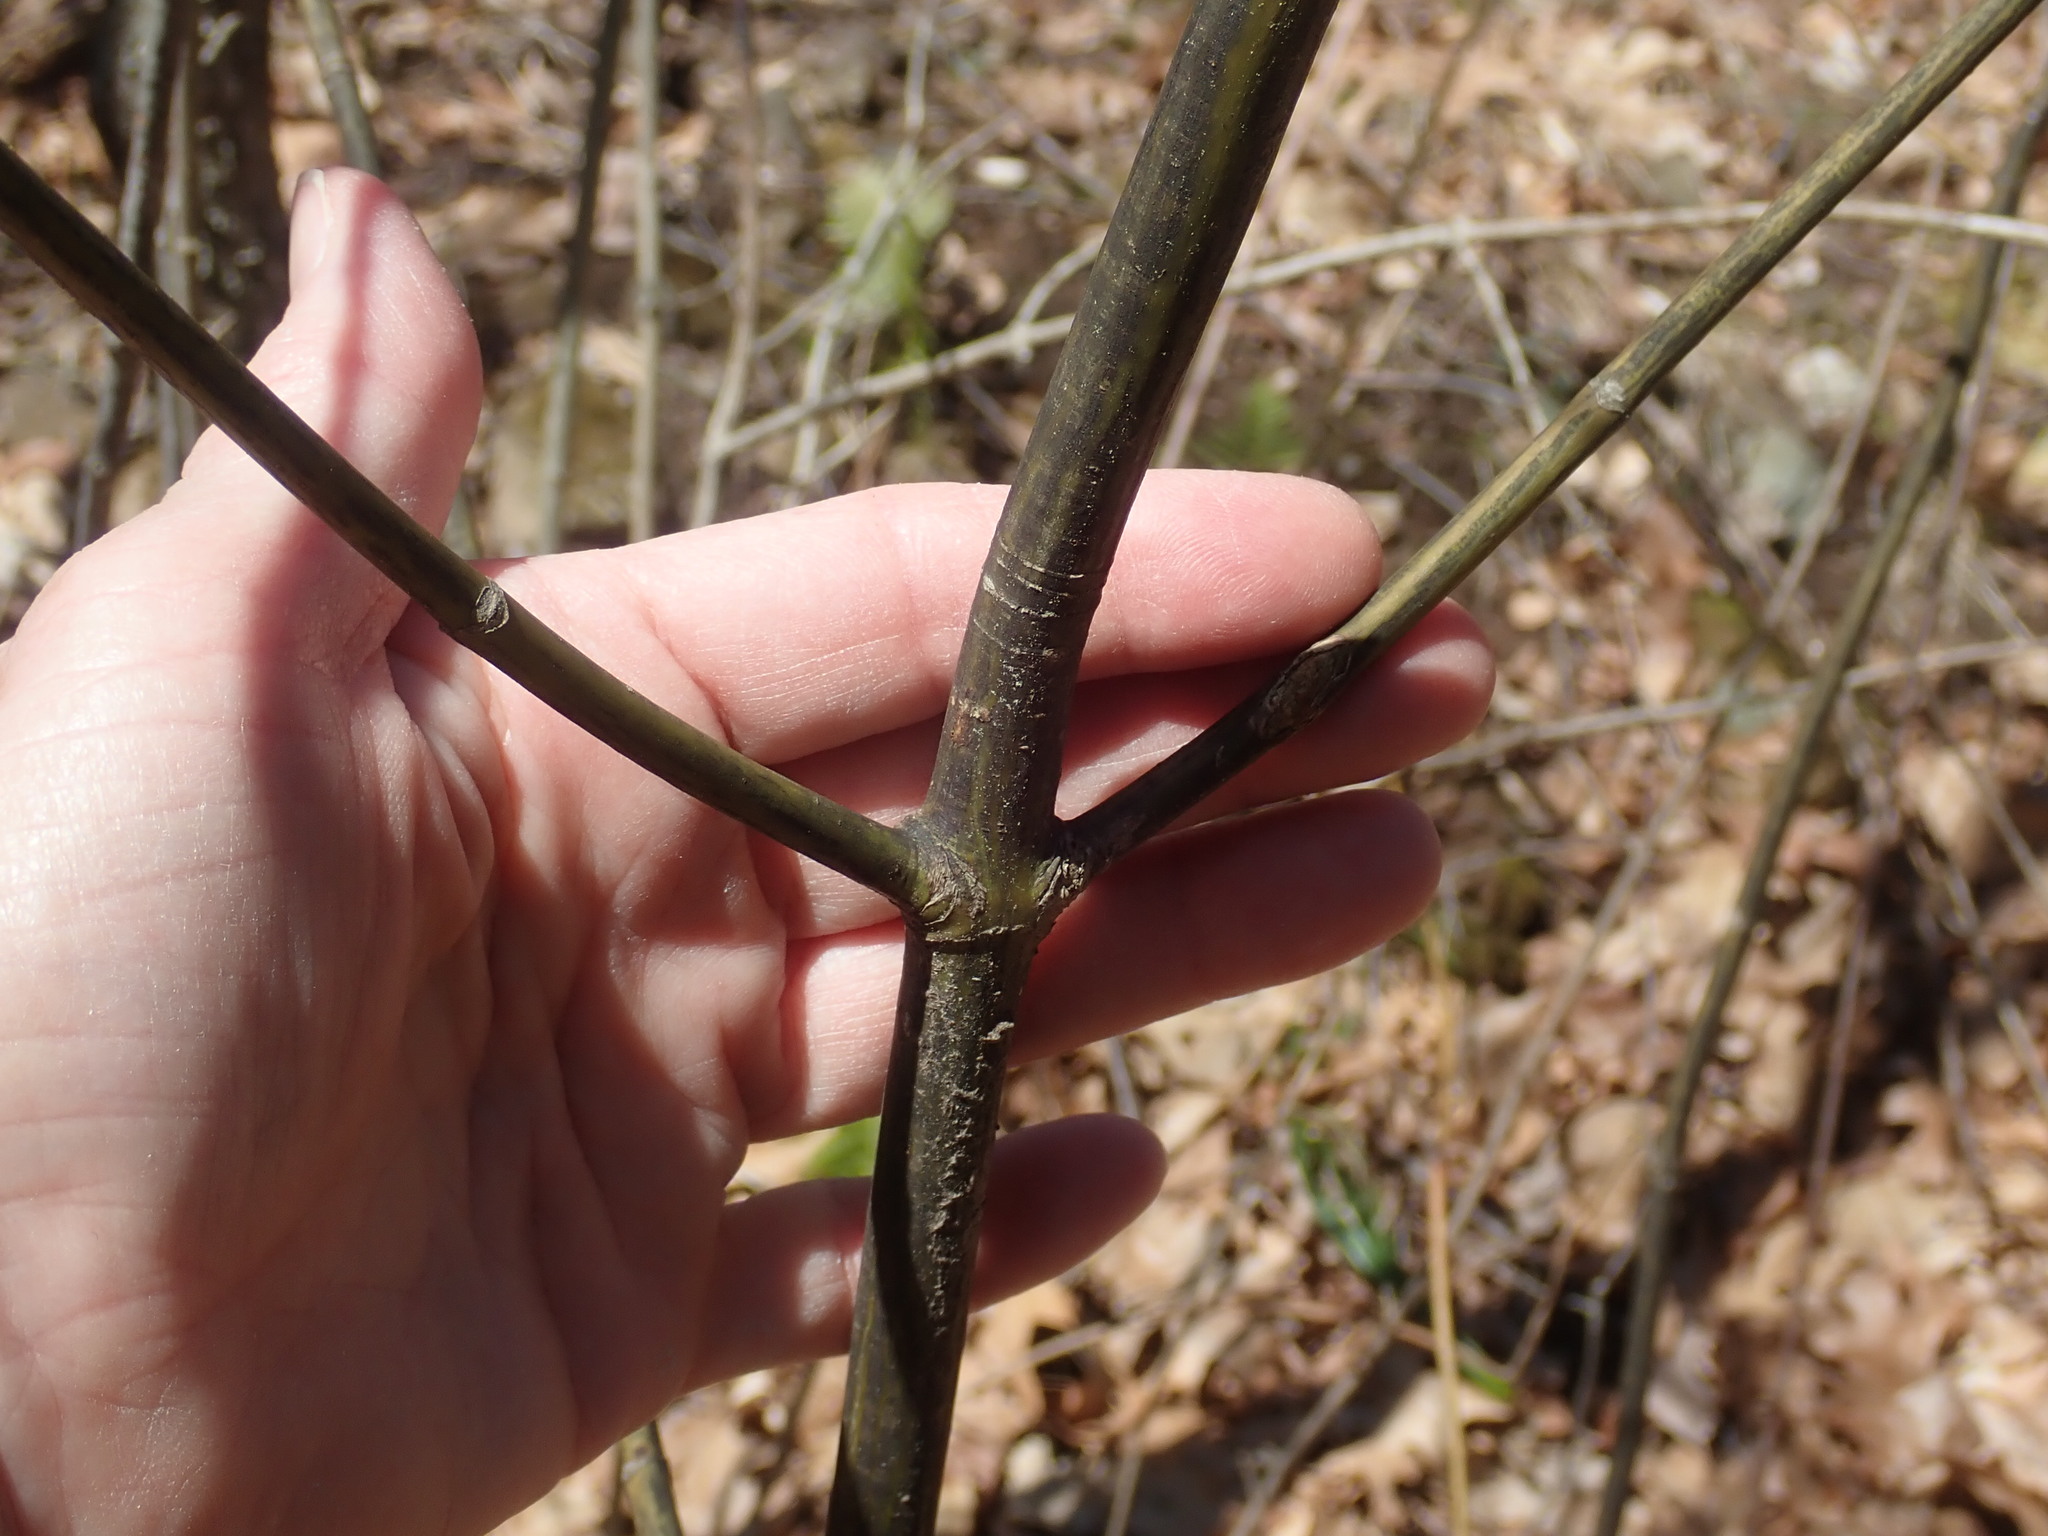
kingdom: Plantae
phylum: Tracheophyta
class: Magnoliopsida
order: Sapindales
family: Sapindaceae
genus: Acer
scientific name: Acer pensylvanicum
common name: Moosewood
